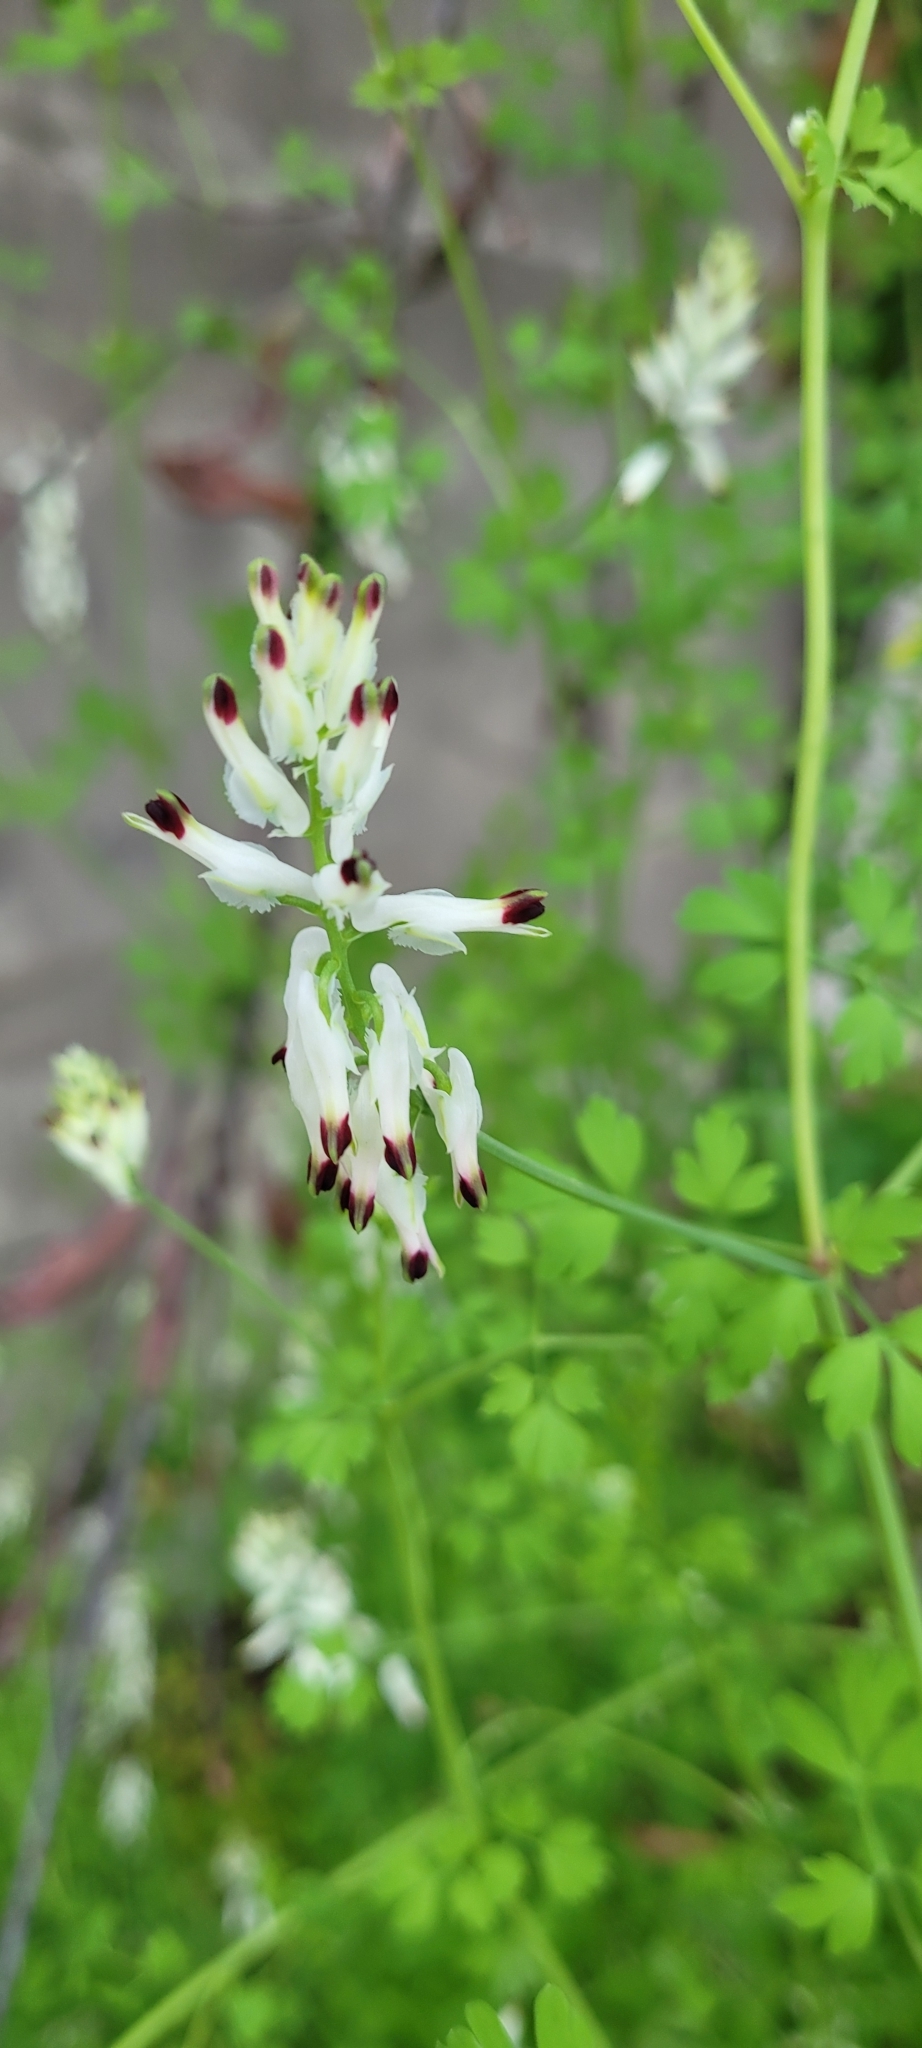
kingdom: Plantae
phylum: Tracheophyta
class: Magnoliopsida
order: Ranunculales
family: Papaveraceae
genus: Fumaria
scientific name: Fumaria capreolata
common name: White ramping-fumitory
